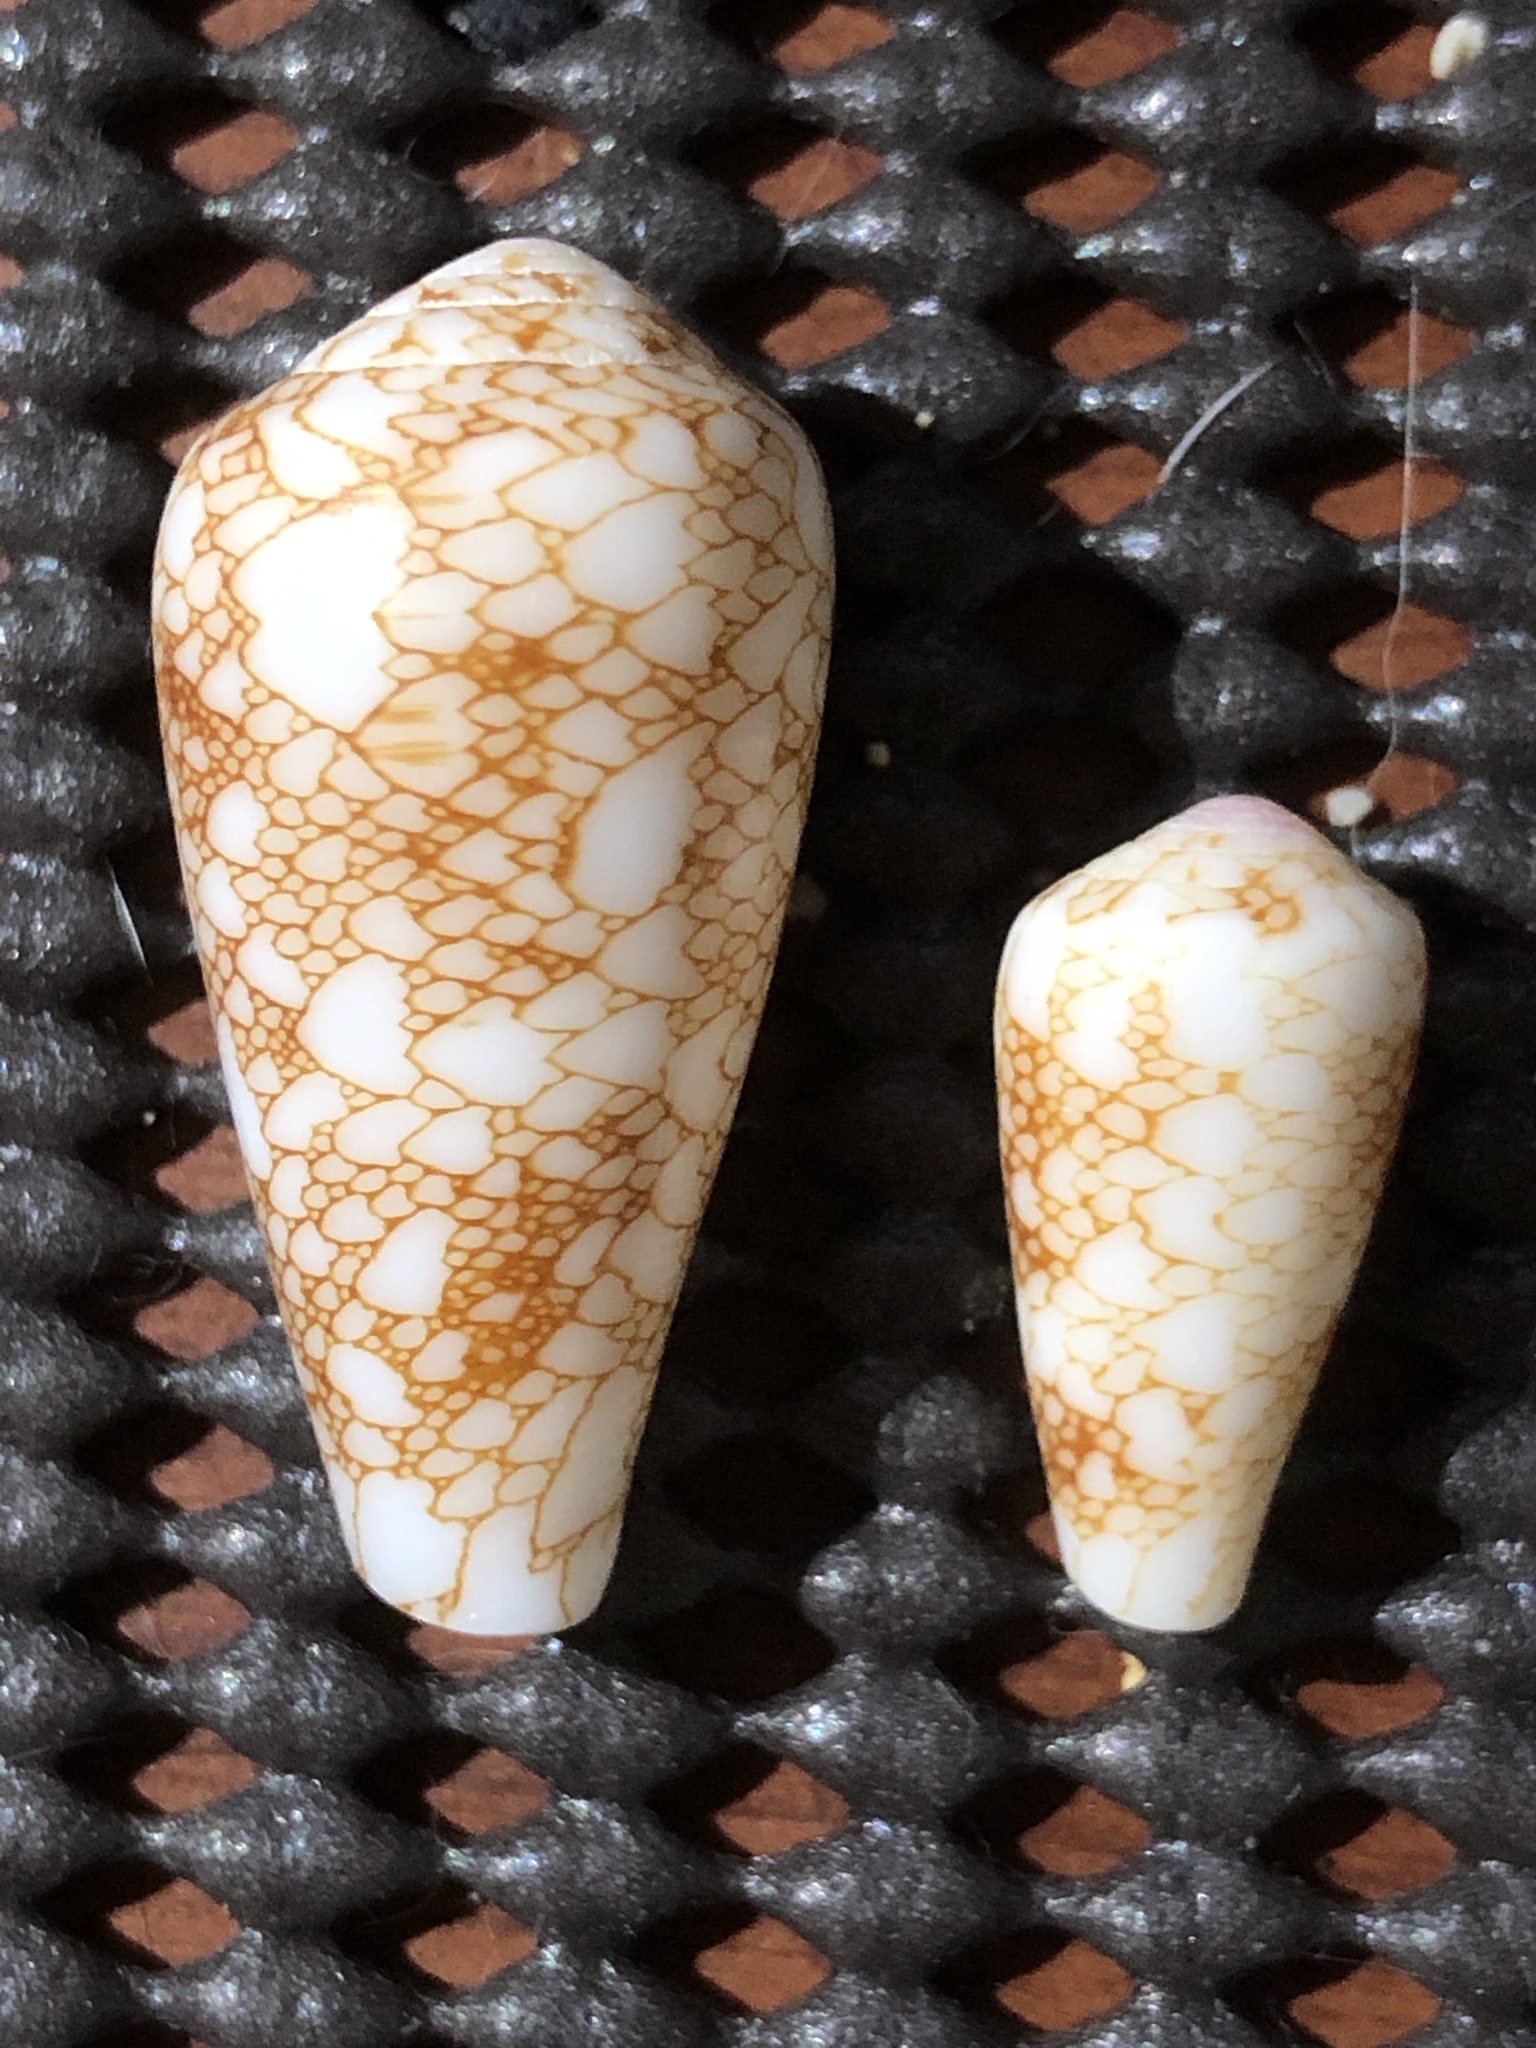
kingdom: Animalia
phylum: Mollusca
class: Gastropoda
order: Neogastropoda
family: Conidae
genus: Conus
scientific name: Conus omaria
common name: Omaria cone
